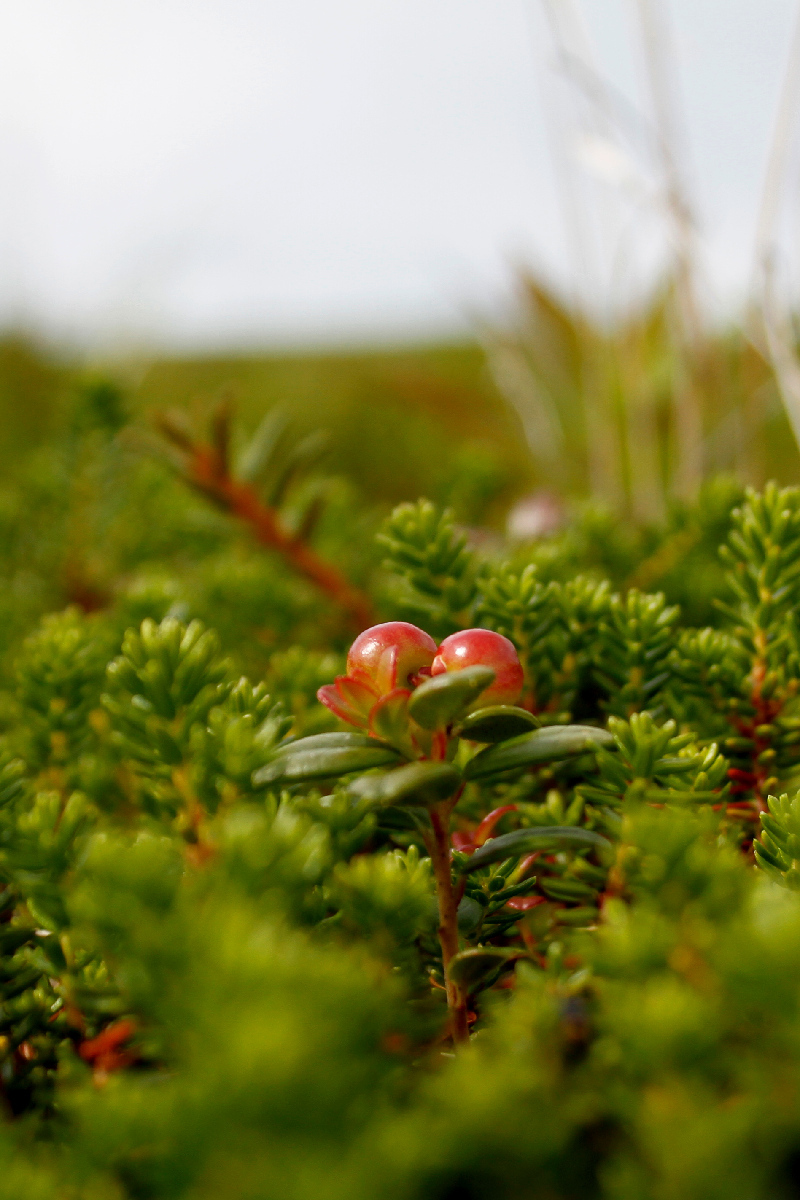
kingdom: Plantae
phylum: Tracheophyta
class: Magnoliopsida
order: Ericales
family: Ericaceae
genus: Vaccinium
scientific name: Vaccinium vitis-idaea
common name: Cowberry
